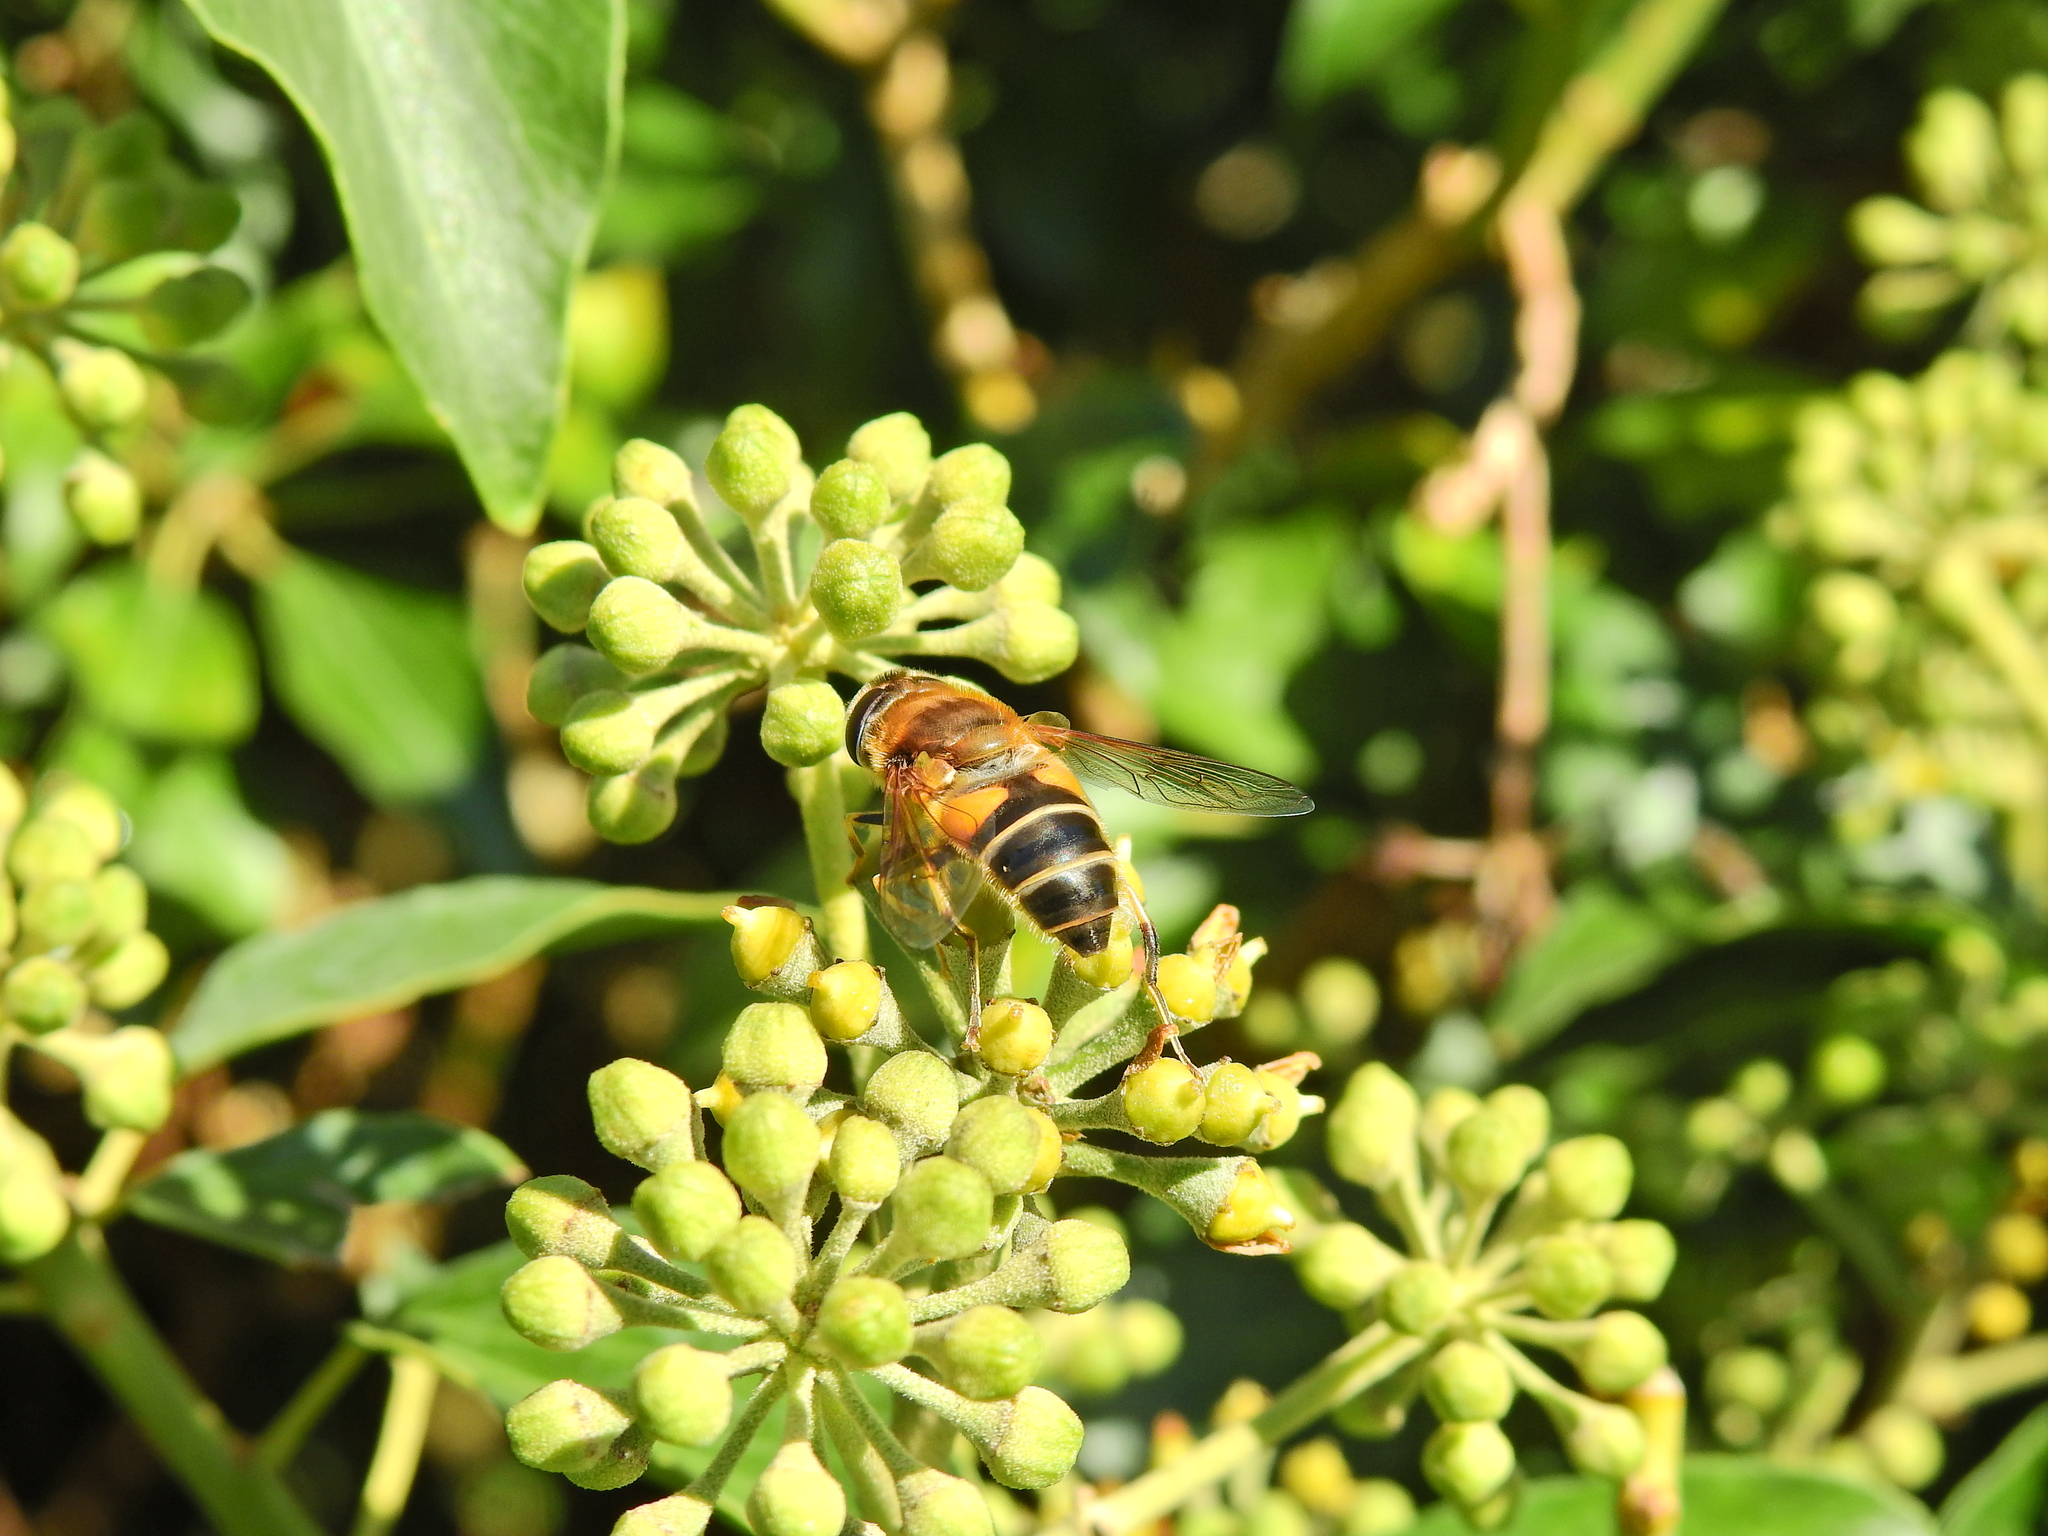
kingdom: Animalia
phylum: Arthropoda
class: Insecta
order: Diptera
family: Syrphidae
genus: Eristalis
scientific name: Eristalis pertinax
